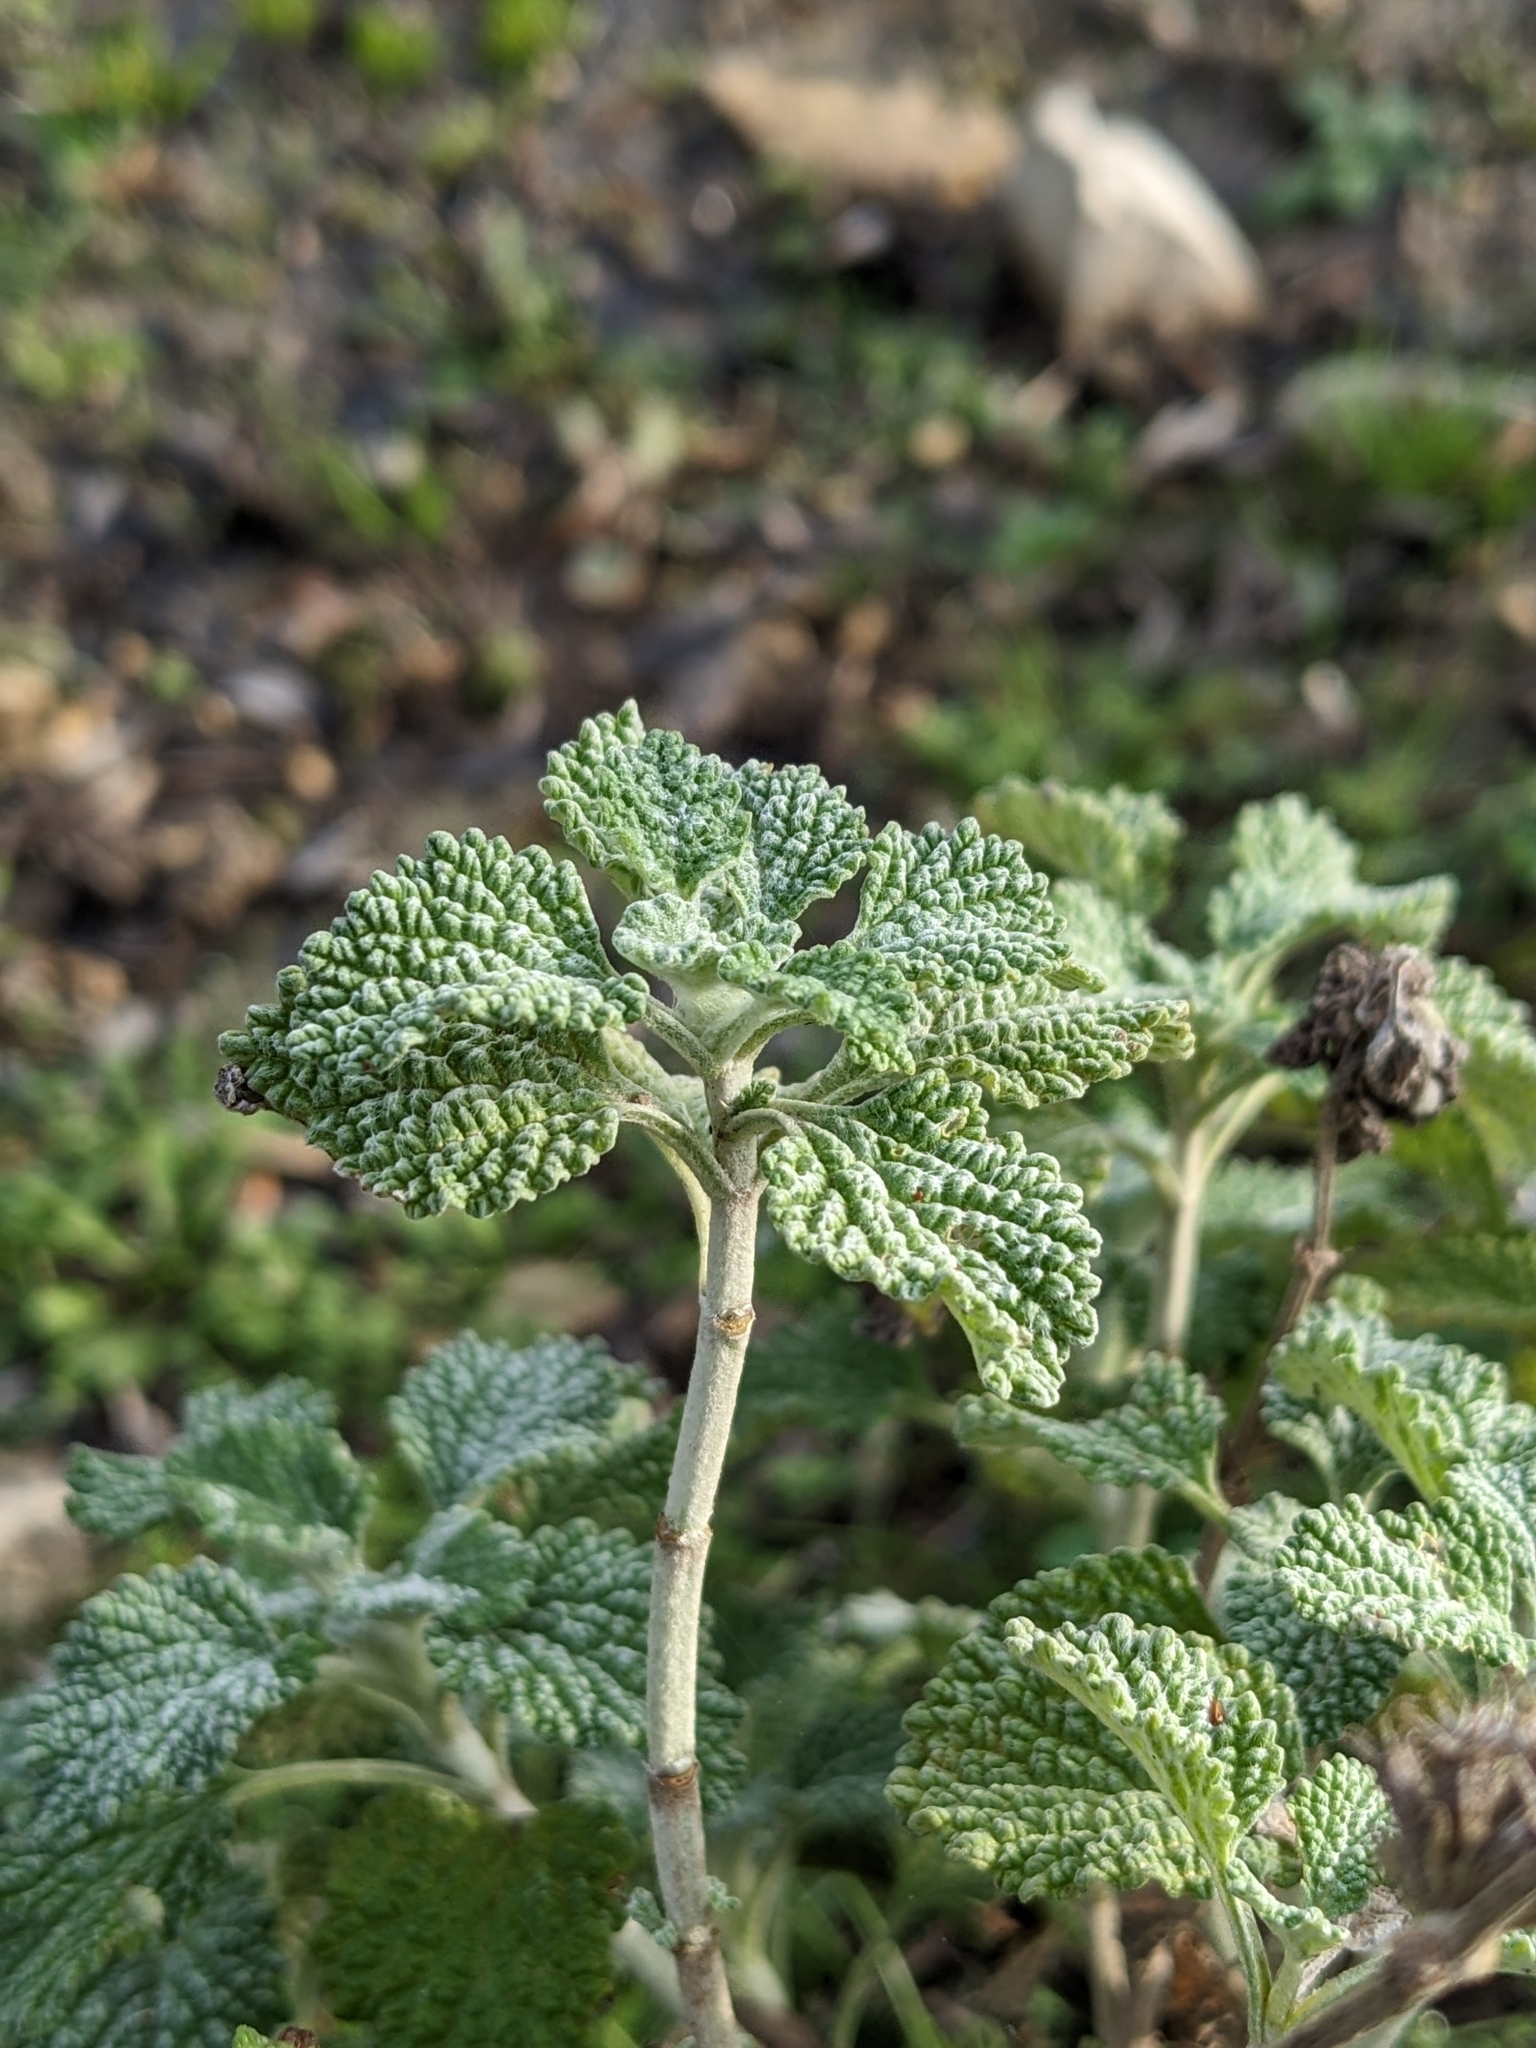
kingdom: Plantae
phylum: Tracheophyta
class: Magnoliopsida
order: Lamiales
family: Lamiaceae
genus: Marrubium
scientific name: Marrubium vulgare
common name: Horehound
